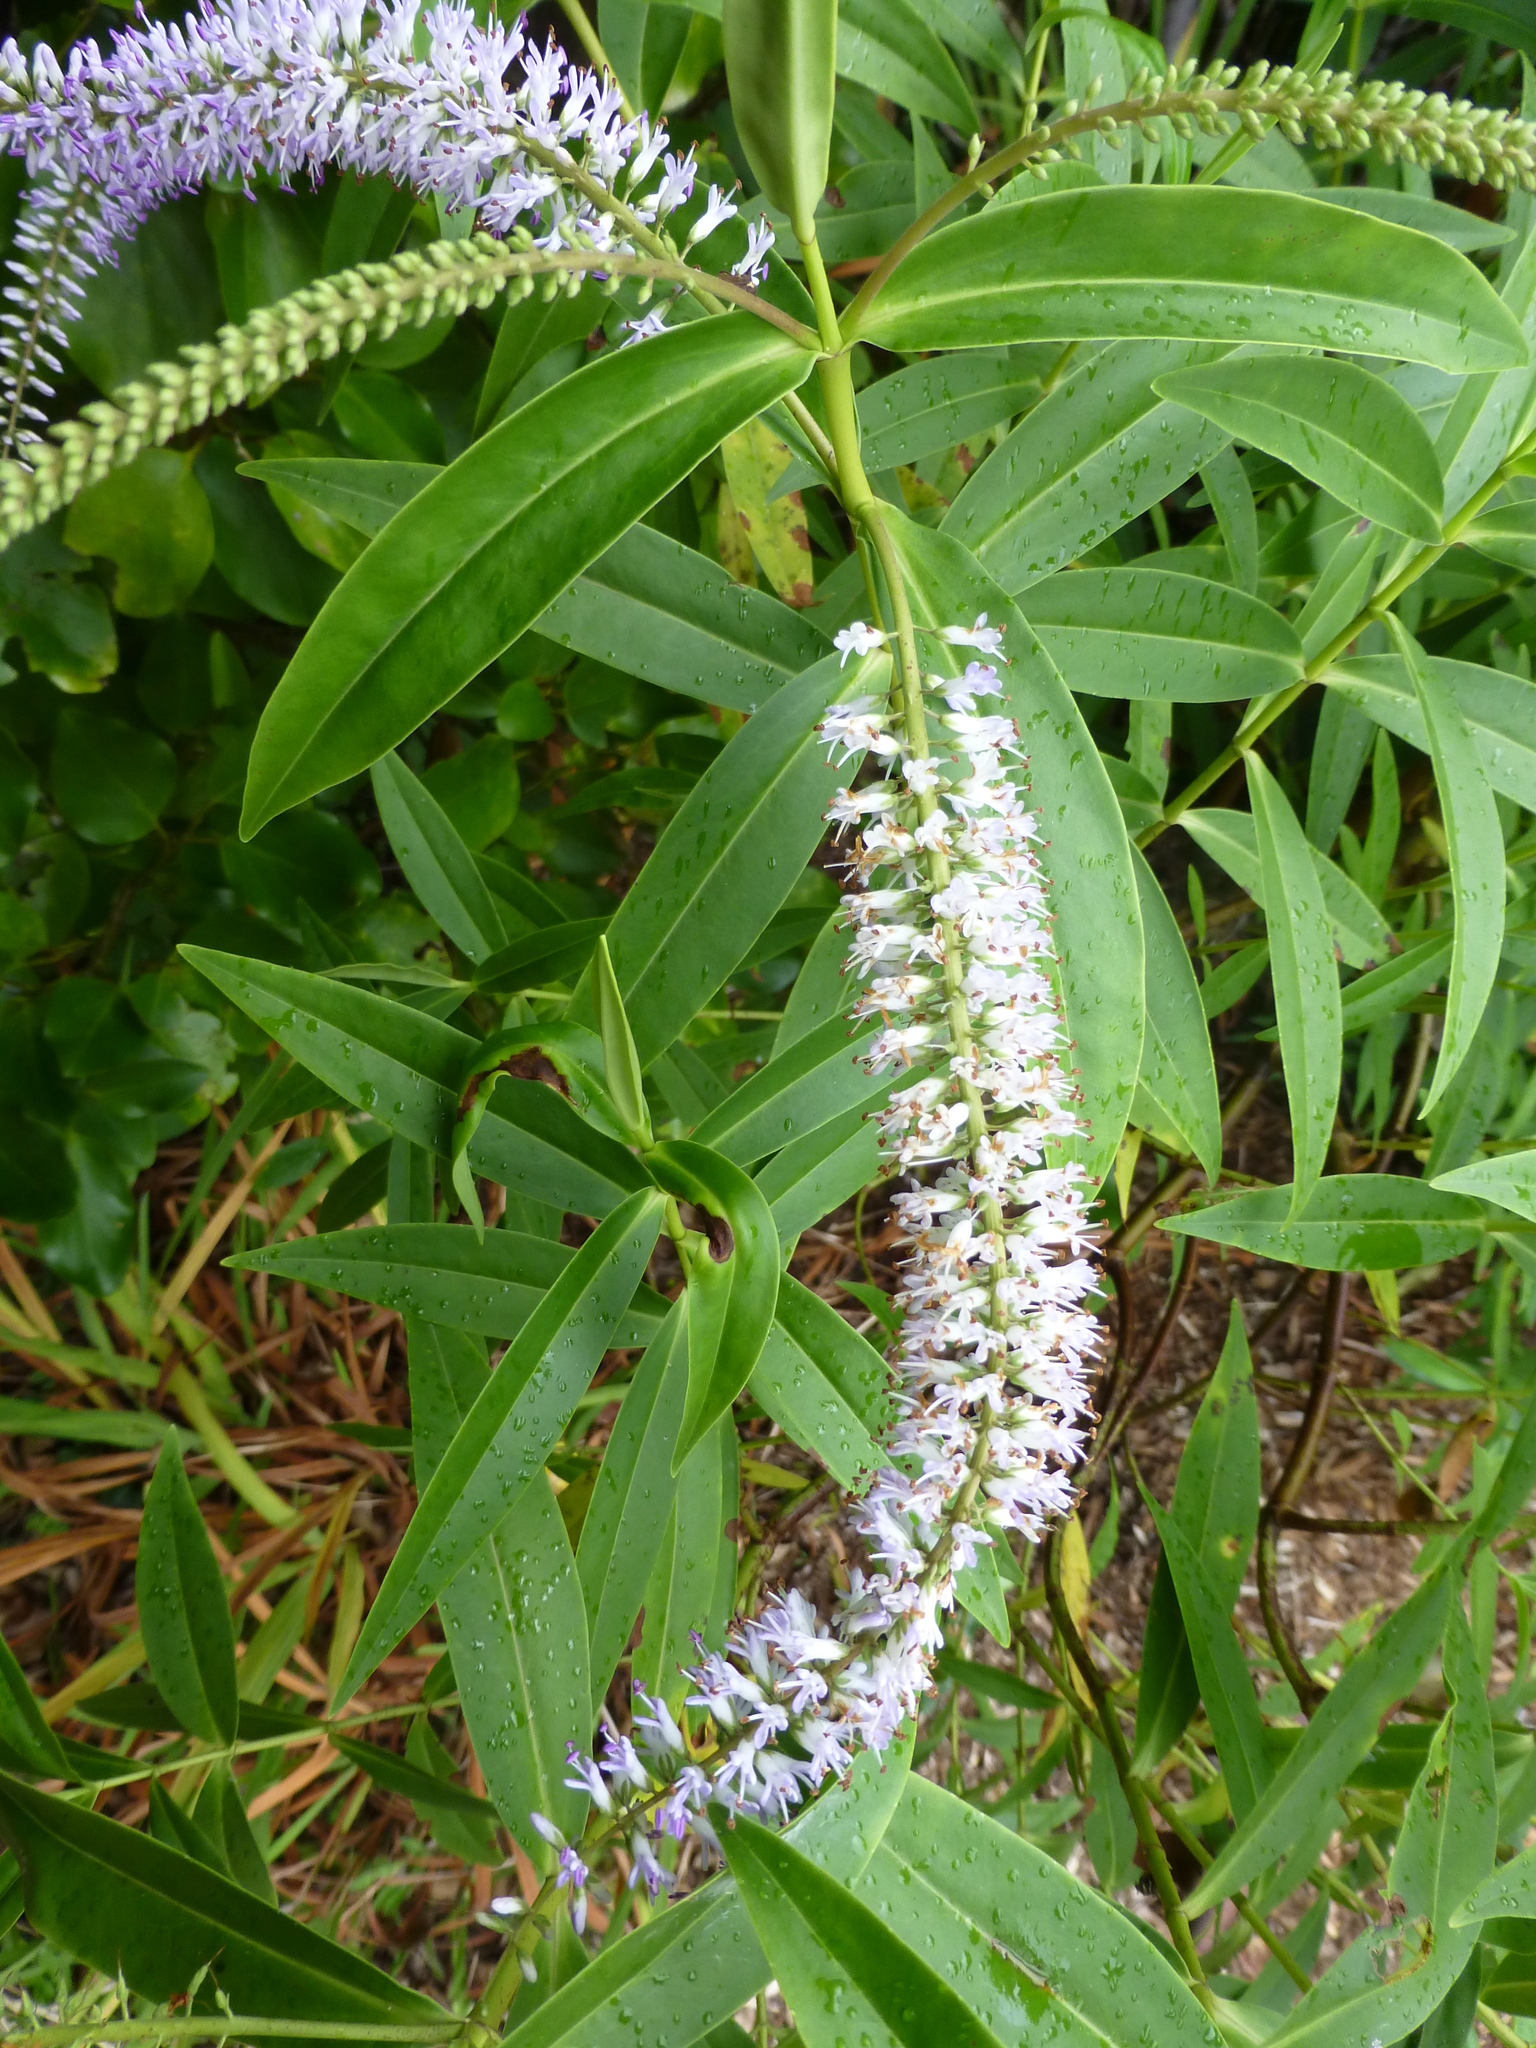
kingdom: Plantae
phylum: Tracheophyta
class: Magnoliopsida
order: Lamiales
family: Plantaginaceae
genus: Veronica
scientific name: Veronica salicifolia
